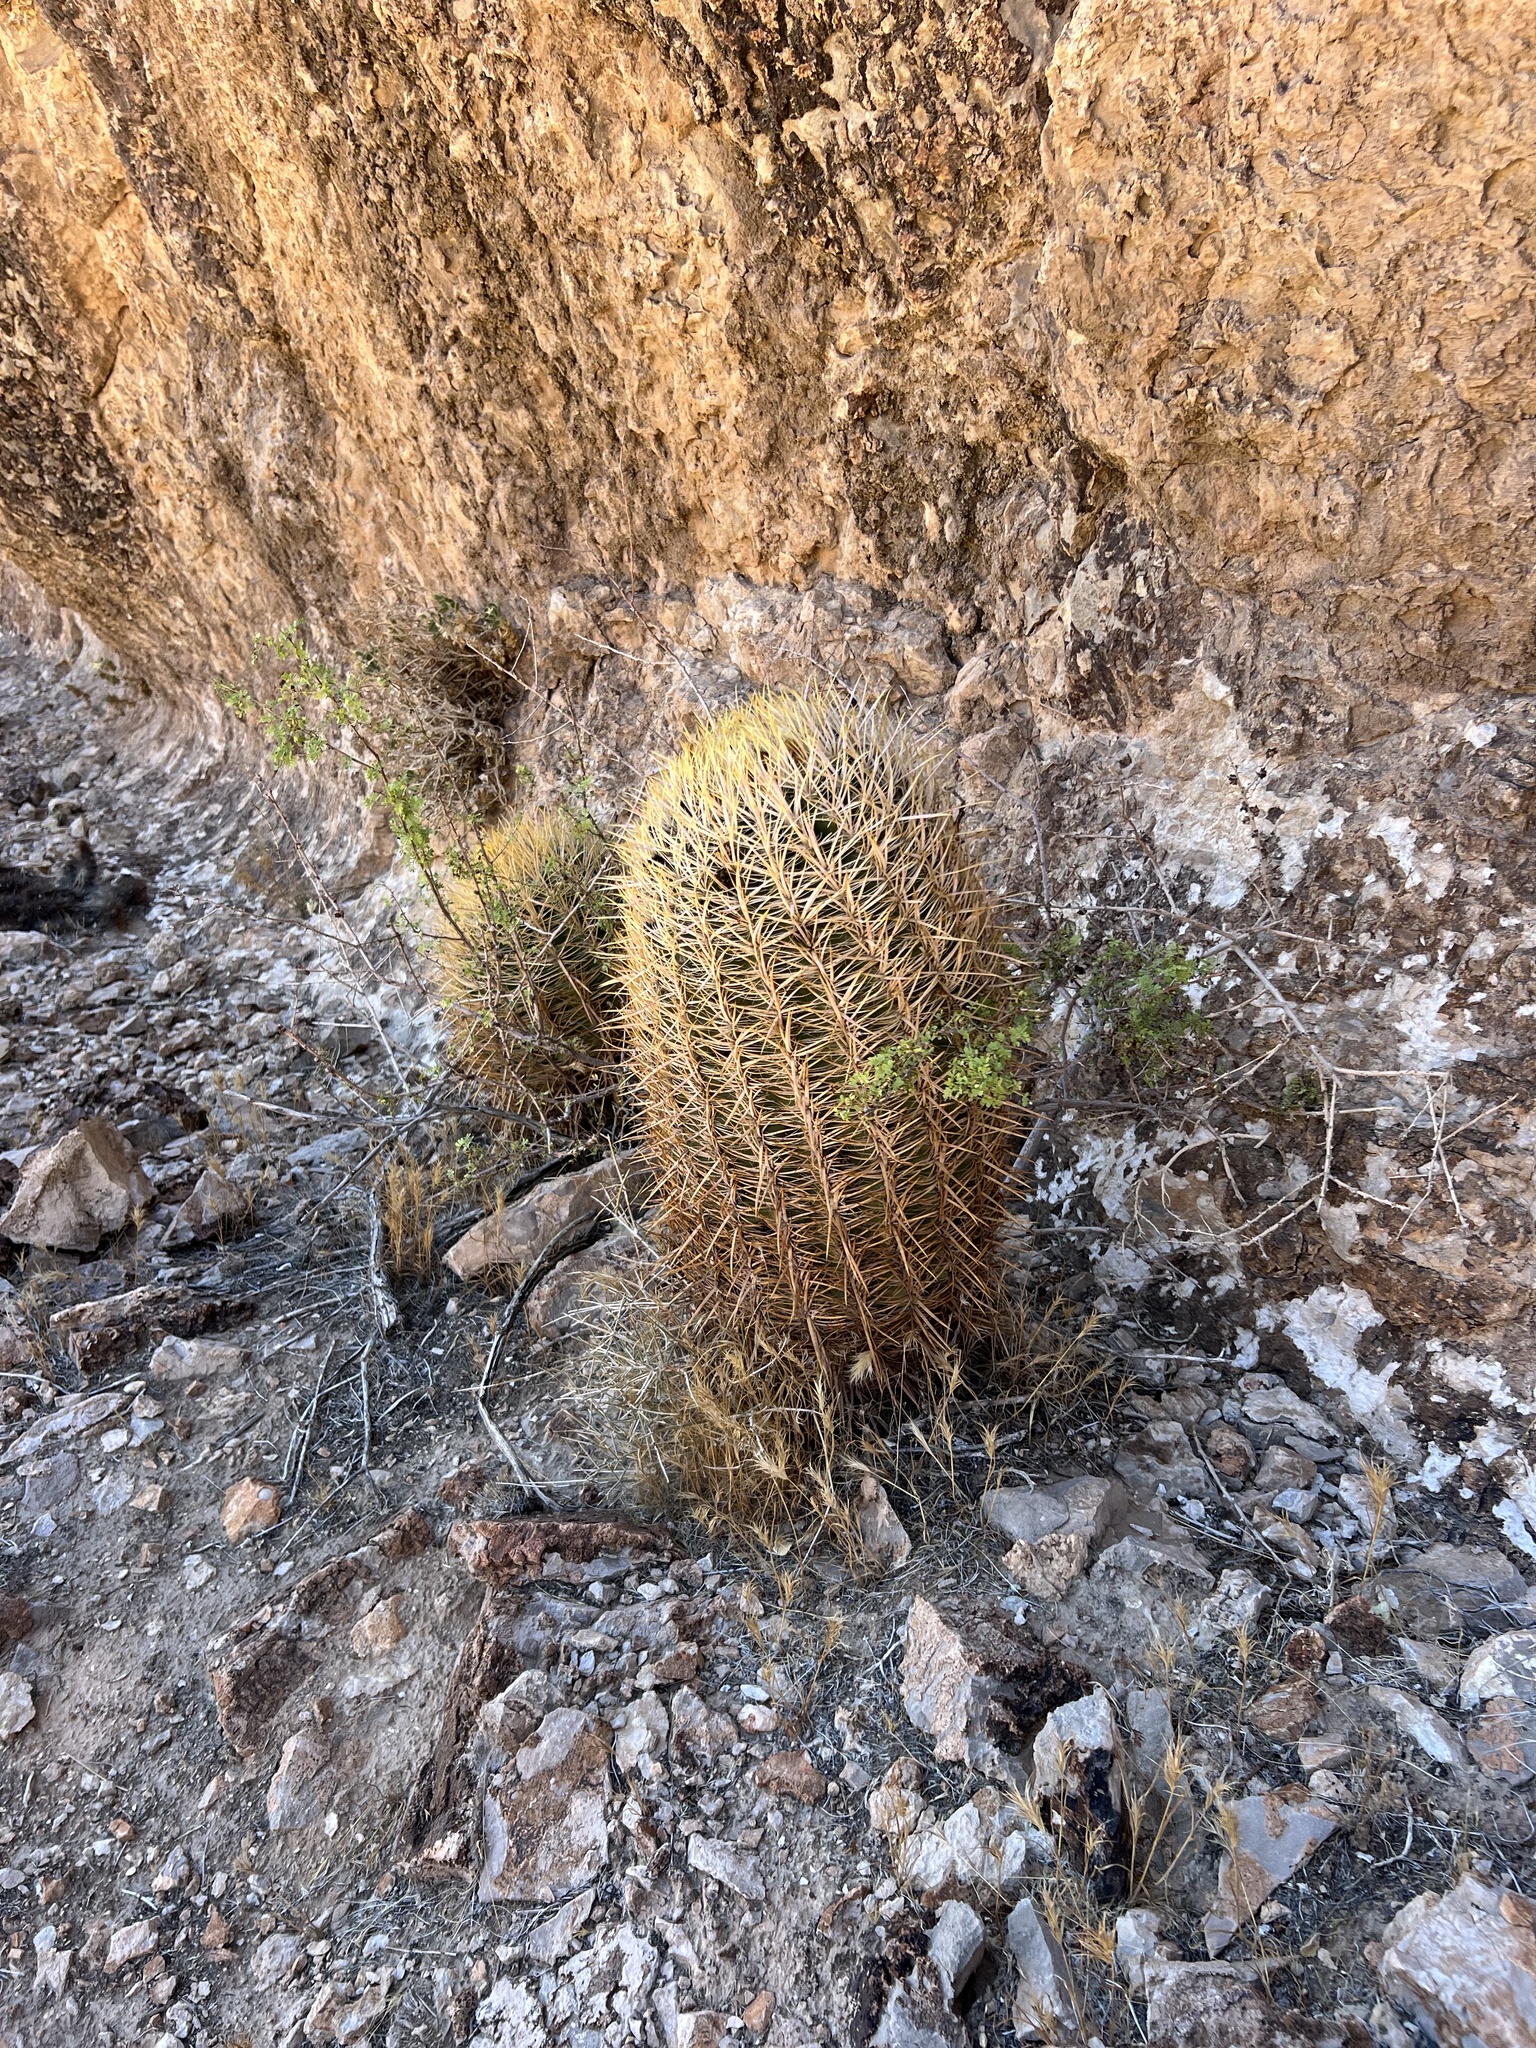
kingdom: Plantae
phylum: Tracheophyta
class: Magnoliopsida
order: Caryophyllales
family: Cactaceae
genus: Ferocactus
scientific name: Ferocactus cylindraceus
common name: California barrel cactus
